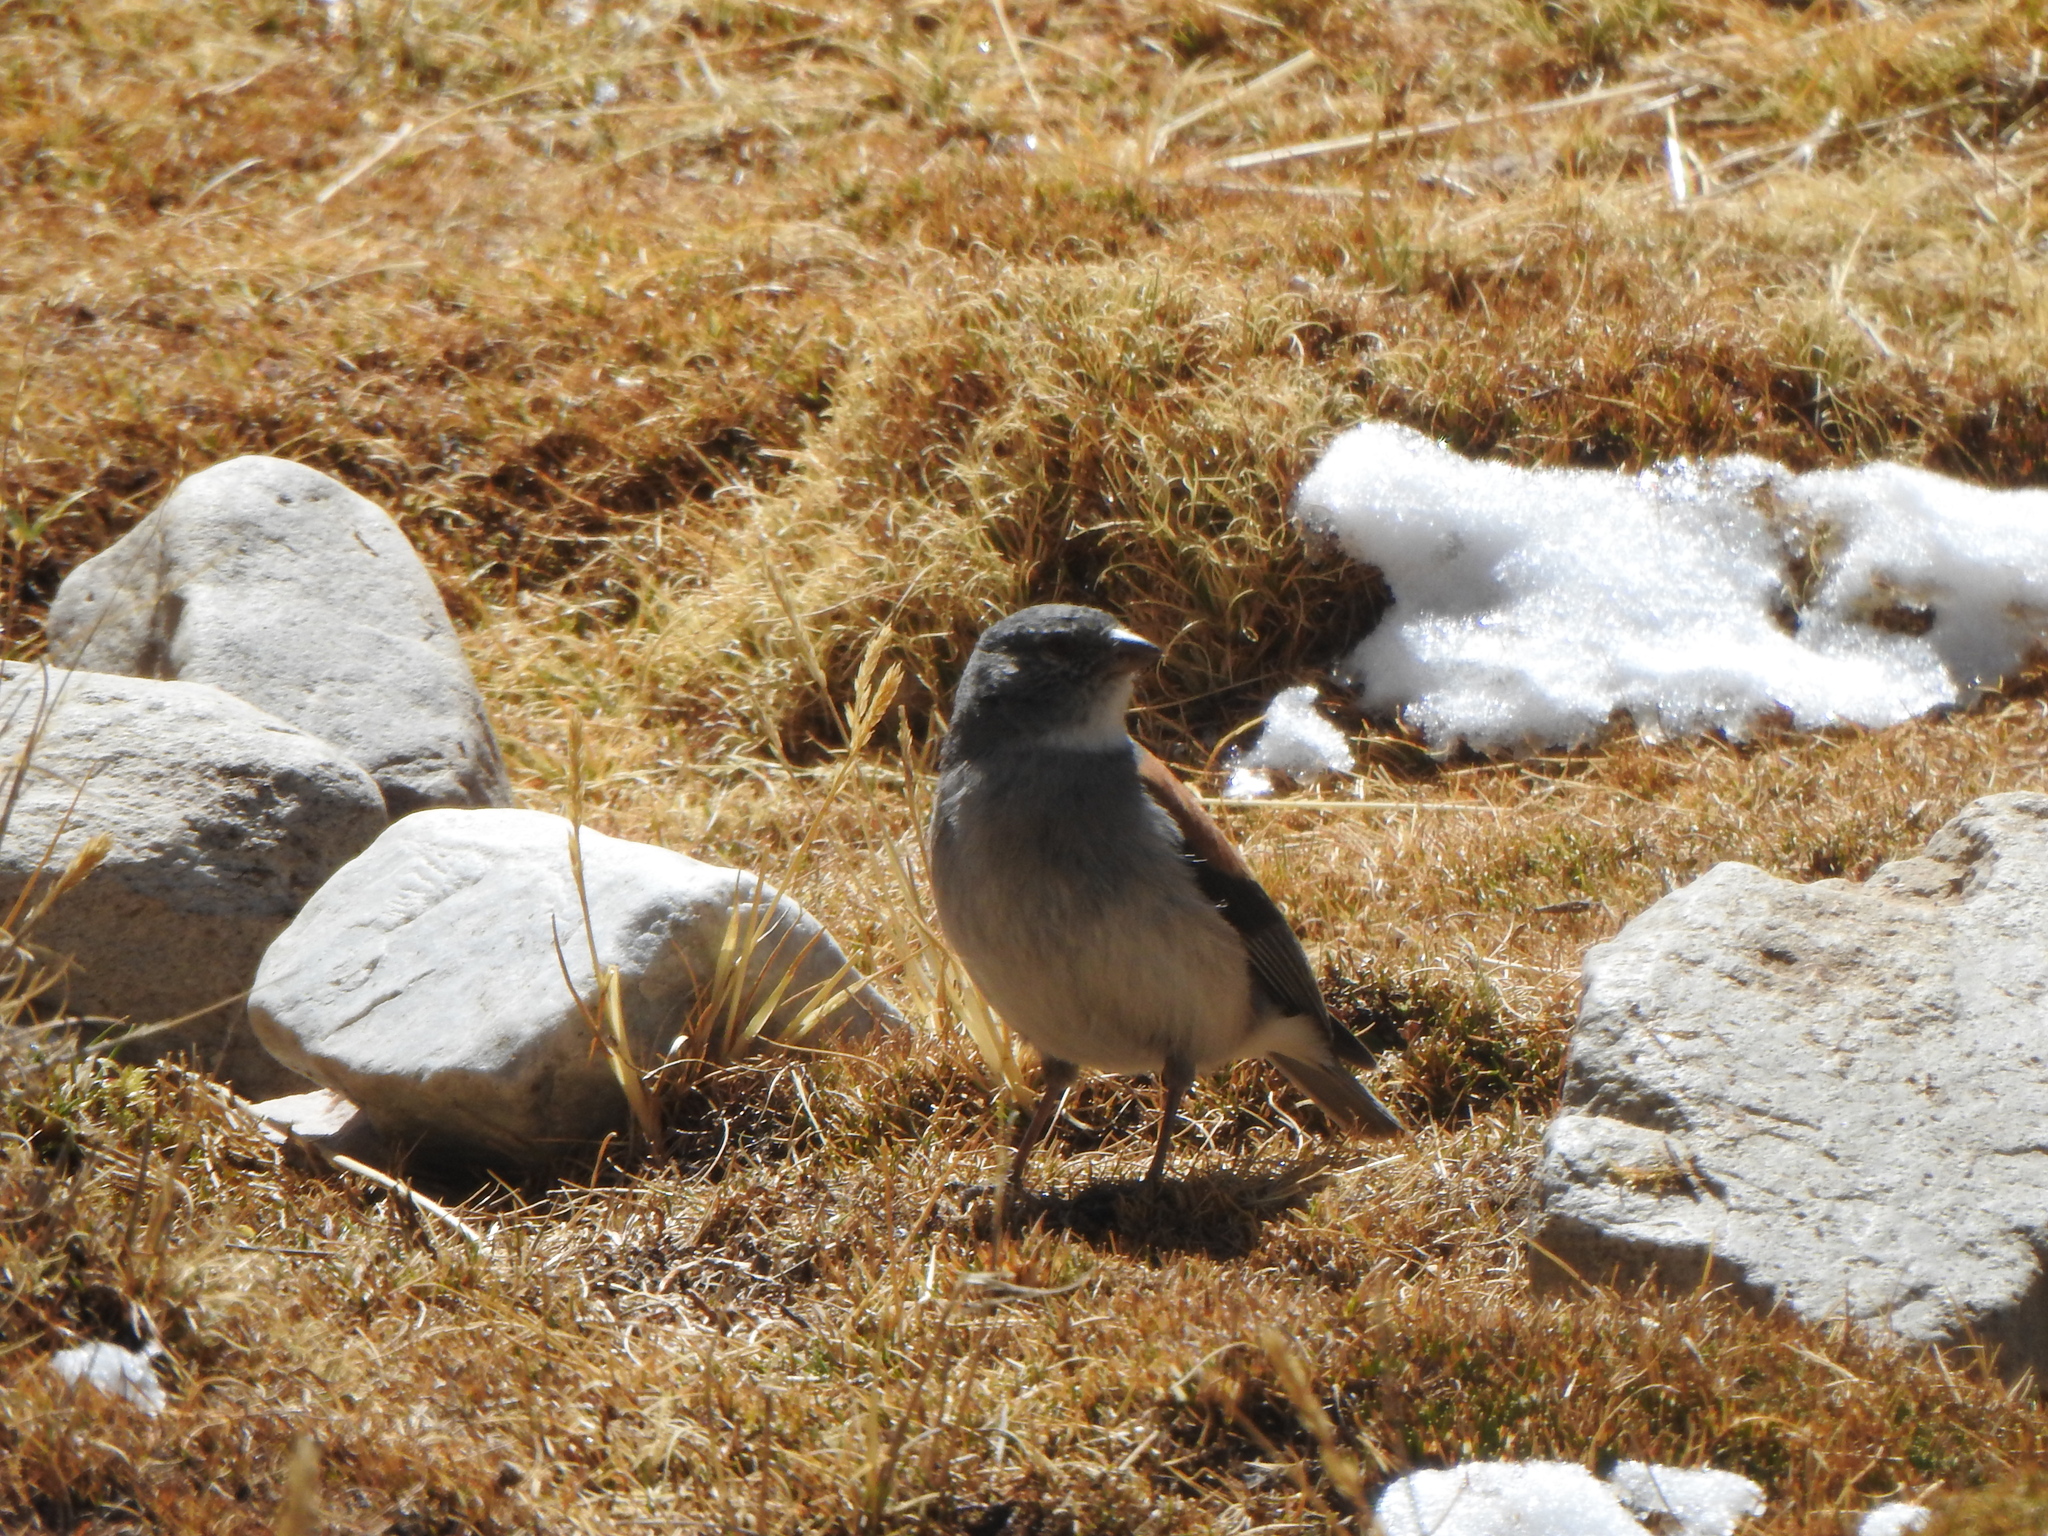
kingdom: Animalia
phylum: Chordata
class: Aves
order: Passeriformes
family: Thraupidae
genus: Idiopsar
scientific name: Idiopsar dorsalis
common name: Red-backed sierra finch
